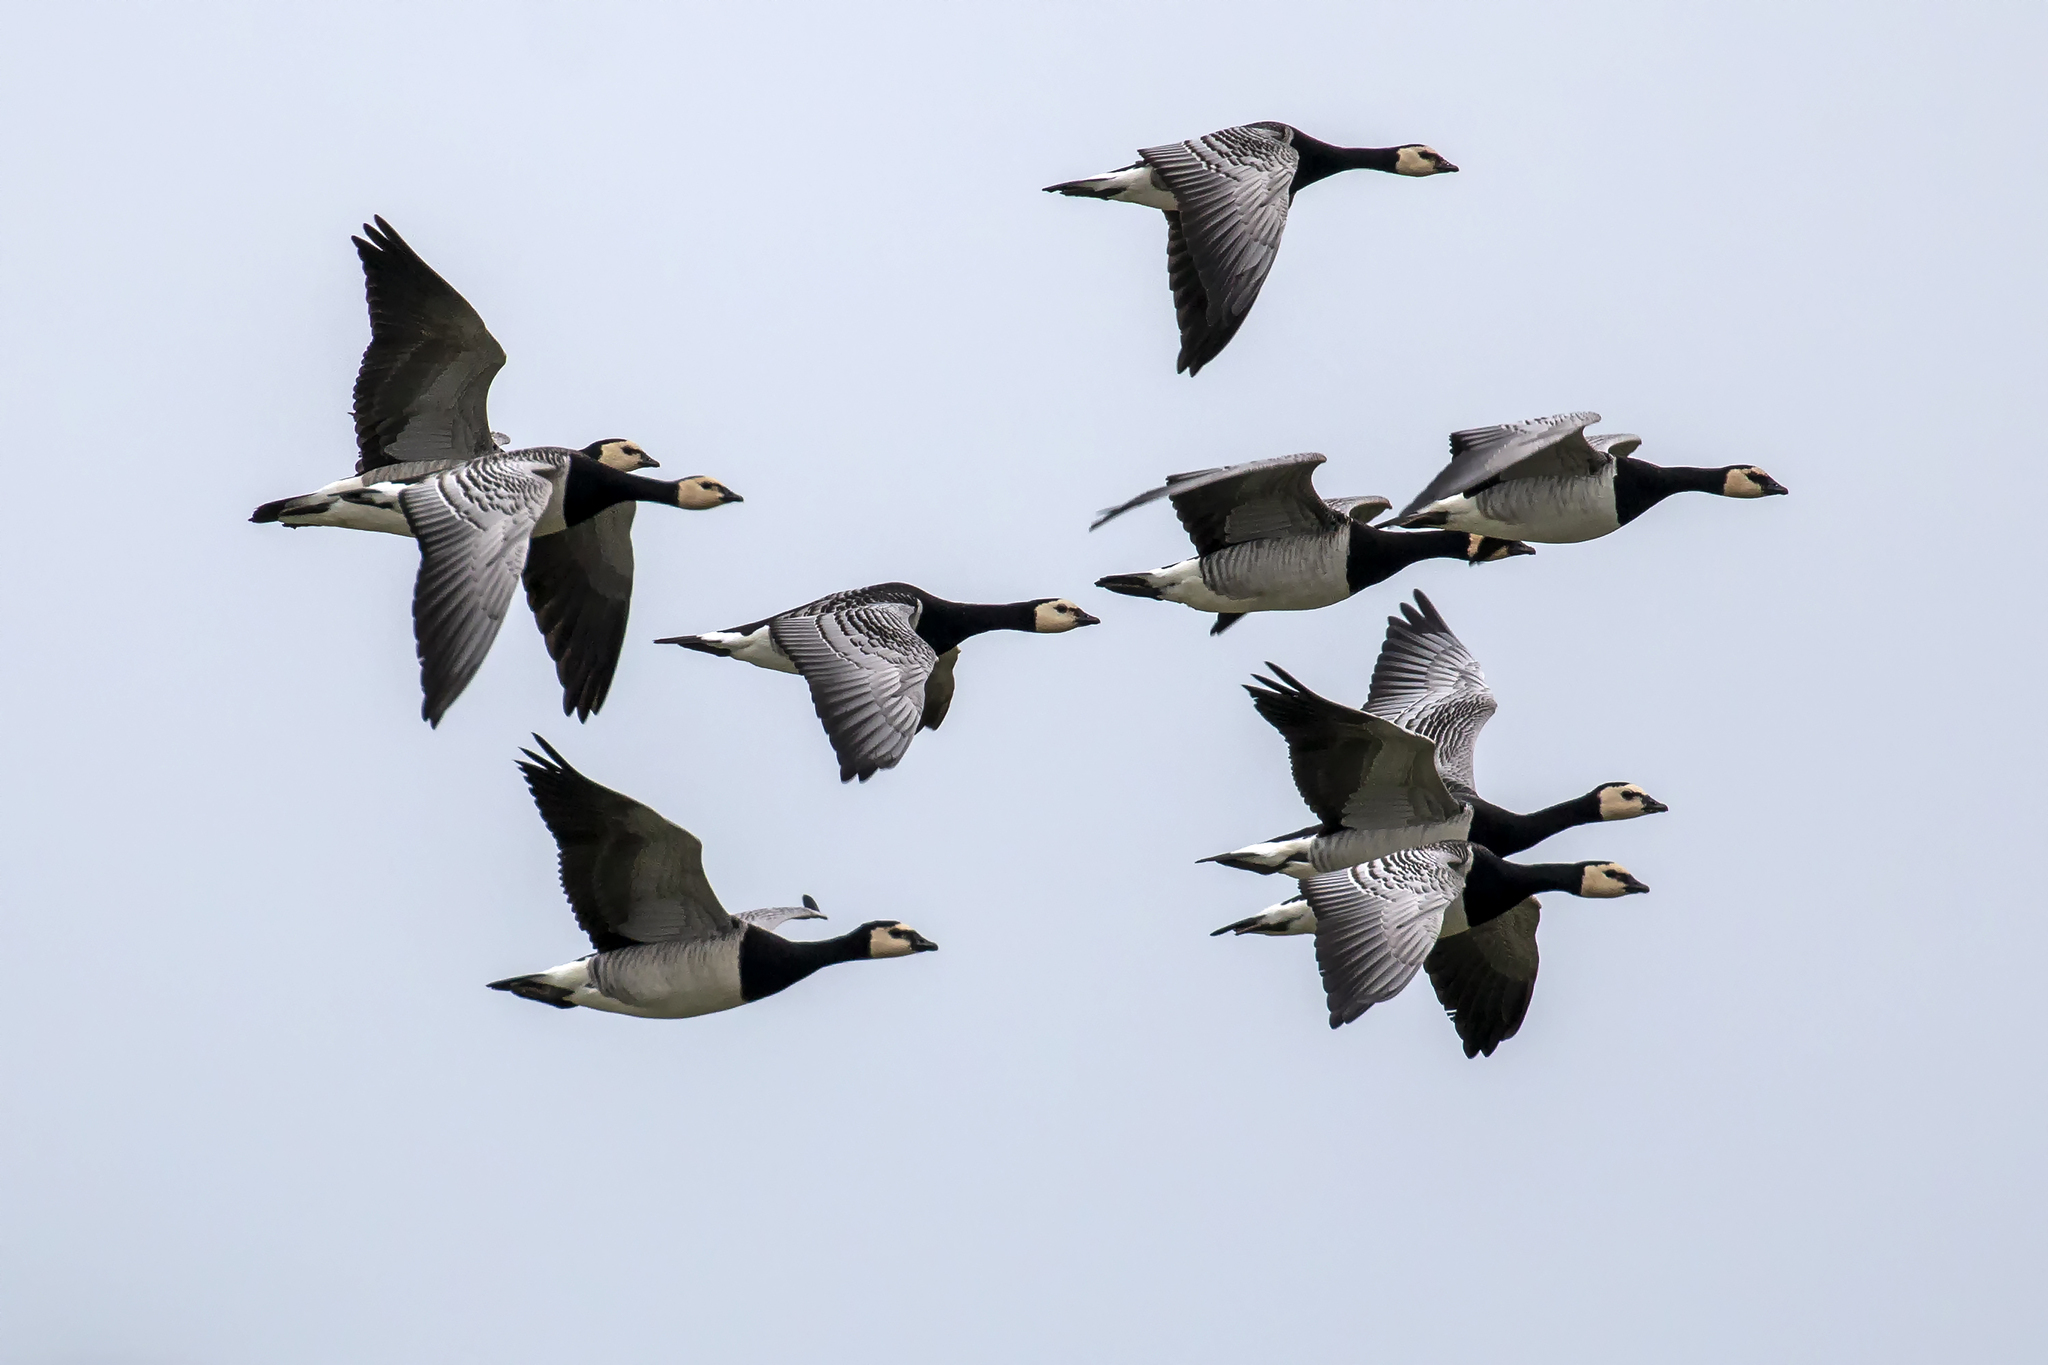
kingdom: Animalia
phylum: Chordata
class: Aves
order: Anseriformes
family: Anatidae
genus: Branta
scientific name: Branta leucopsis
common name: Barnacle goose
